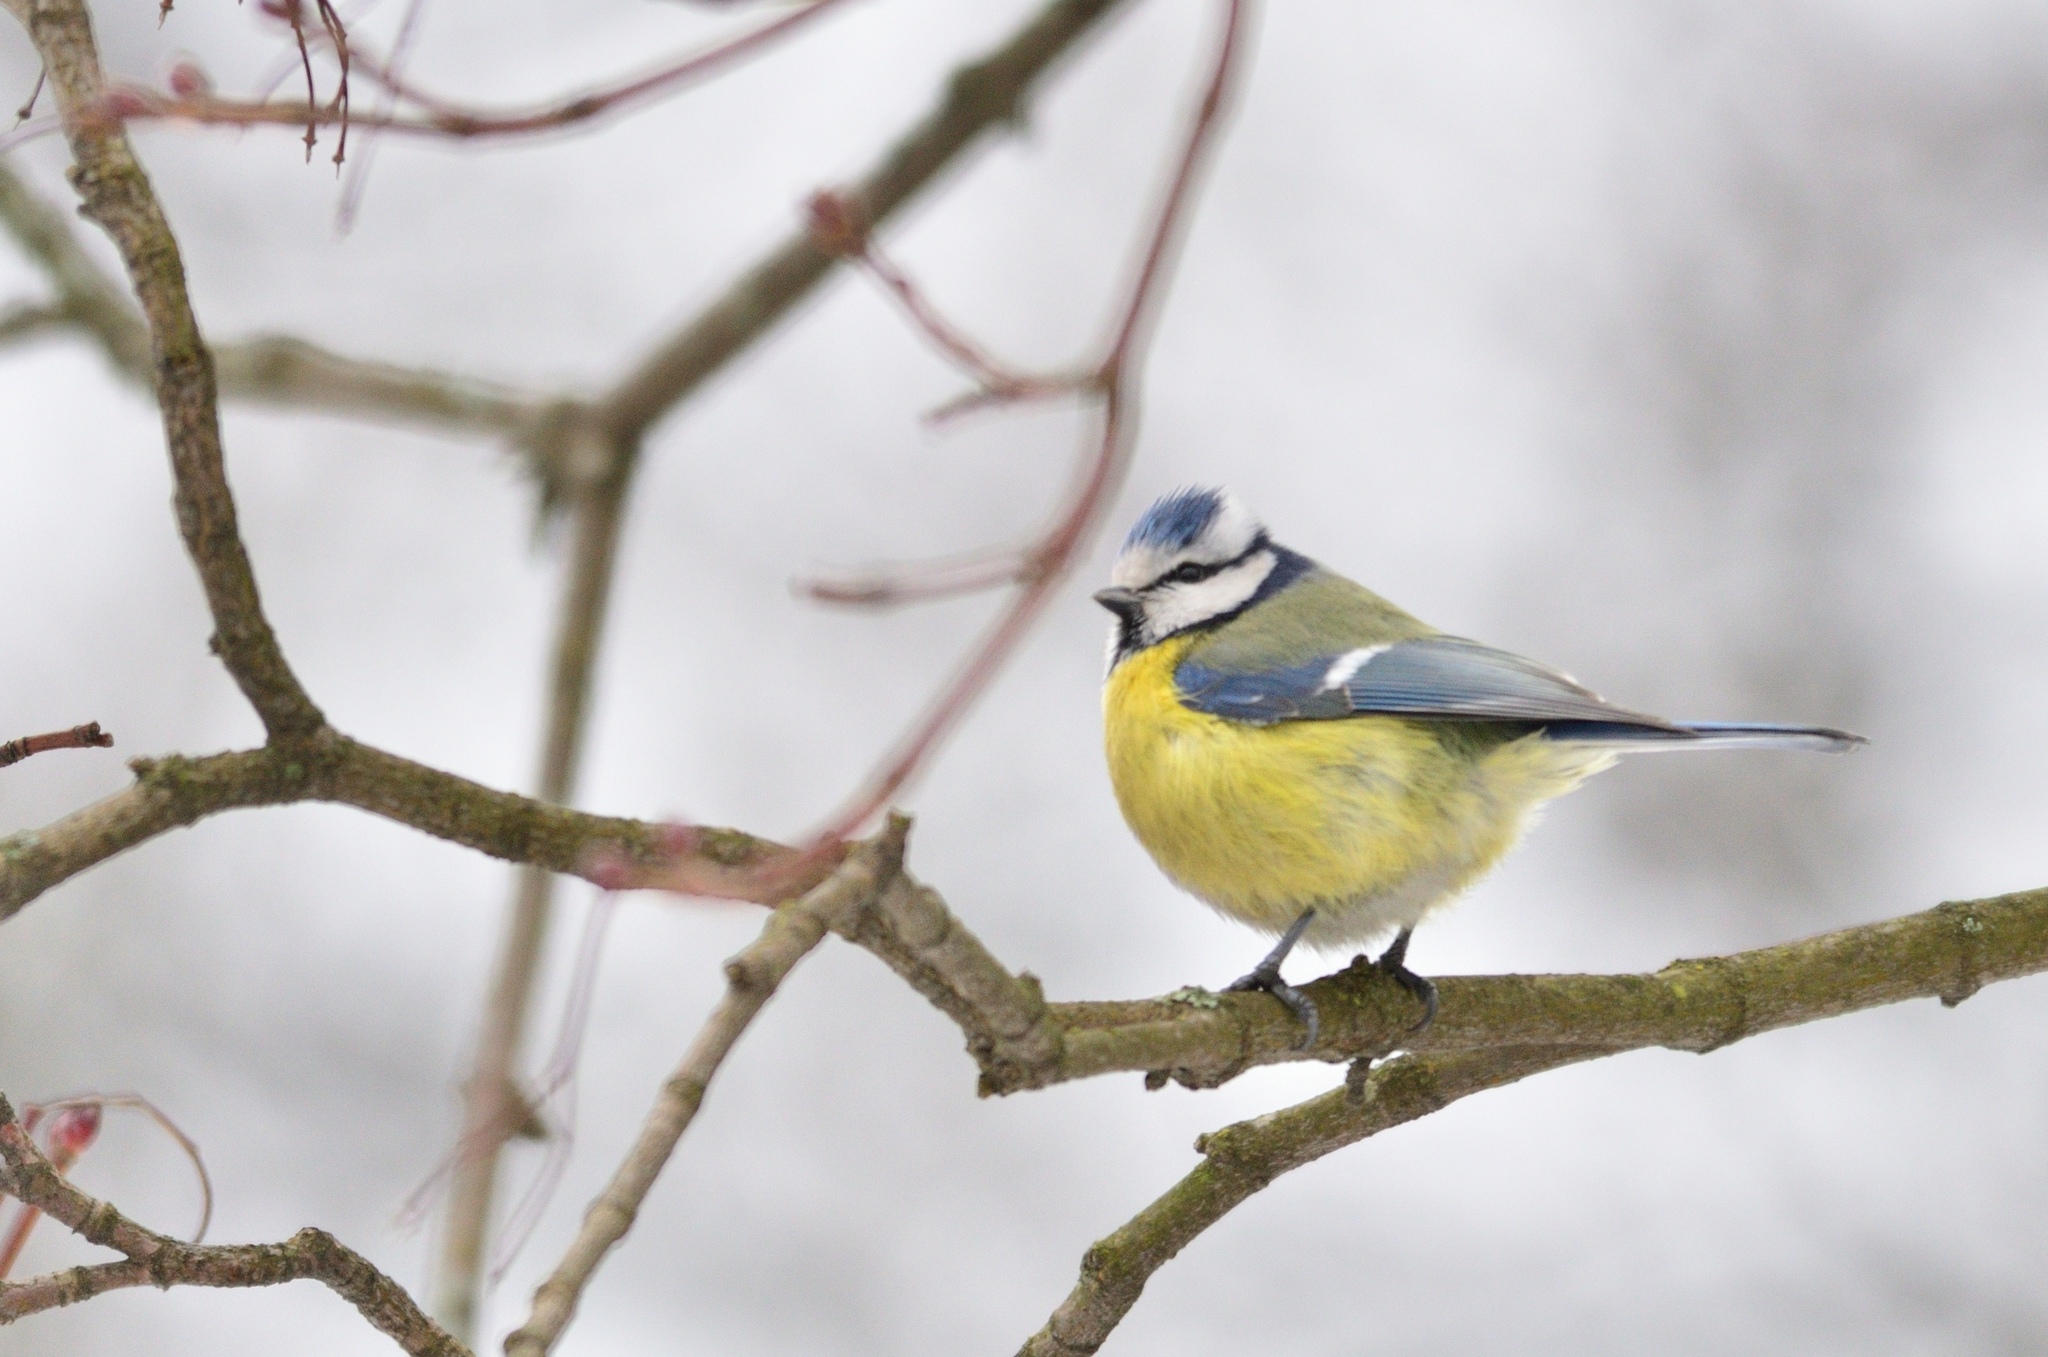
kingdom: Animalia
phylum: Chordata
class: Aves
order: Passeriformes
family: Paridae
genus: Cyanistes
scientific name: Cyanistes caeruleus
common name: Eurasian blue tit
